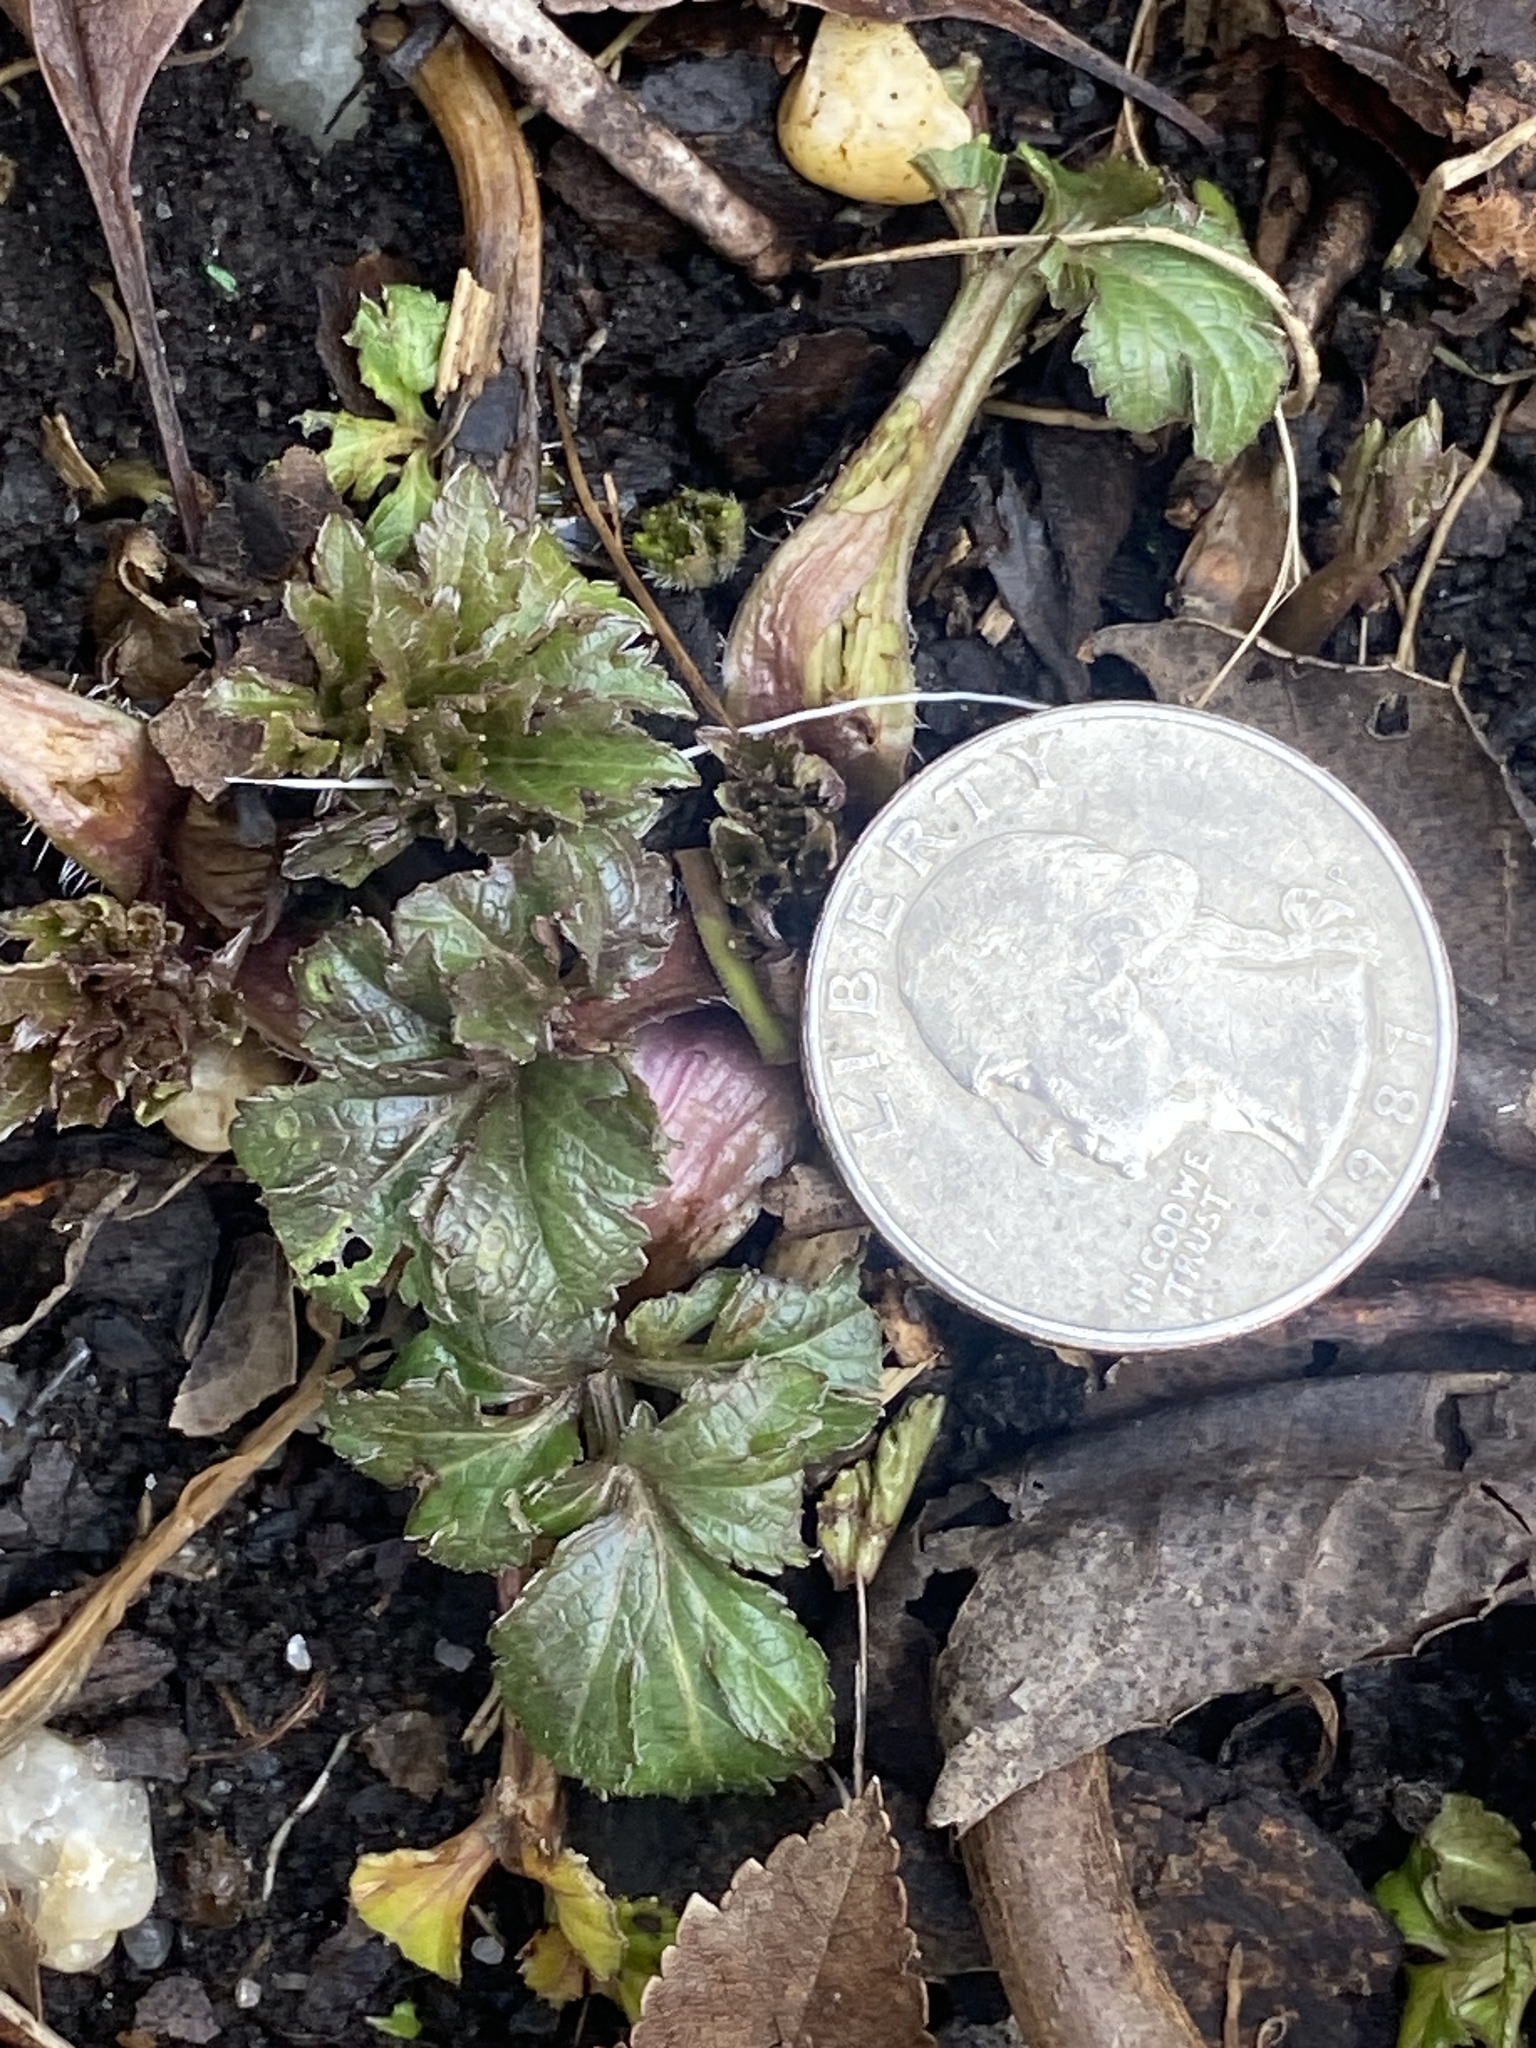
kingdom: Plantae
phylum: Tracheophyta
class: Magnoliopsida
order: Asterales
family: Asteraceae
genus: Rudbeckia
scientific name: Rudbeckia laciniata
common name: Coneflower
